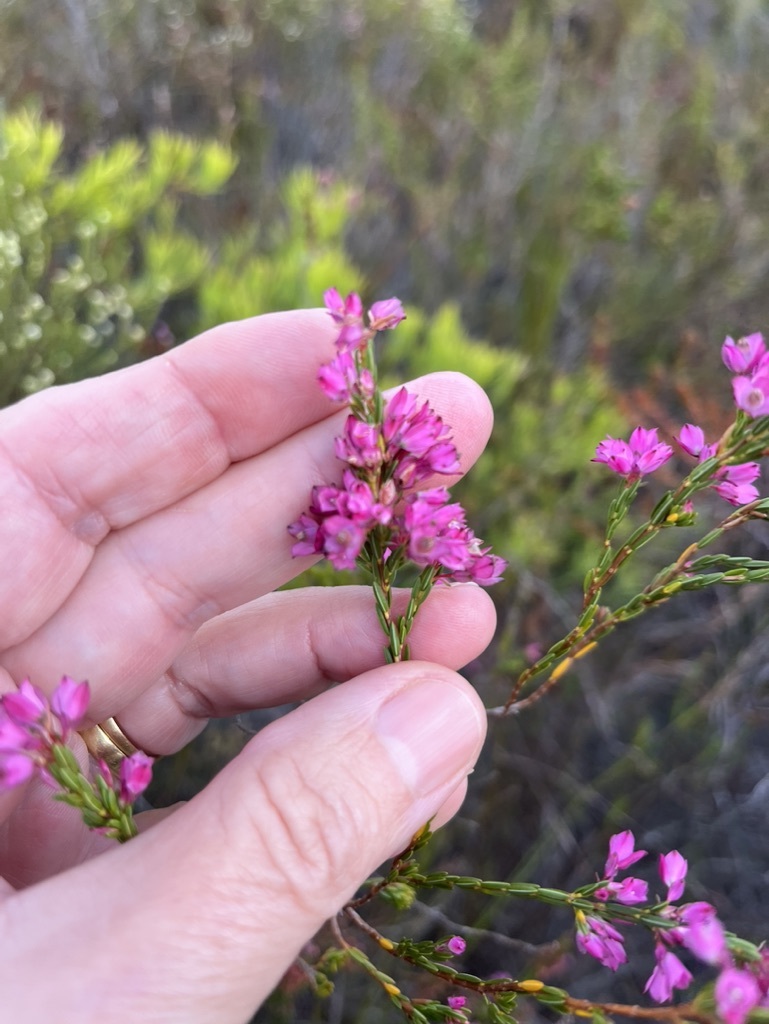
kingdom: Plantae
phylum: Tracheophyta
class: Magnoliopsida
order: Ericales
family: Ericaceae
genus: Erica
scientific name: Erica corifolia
